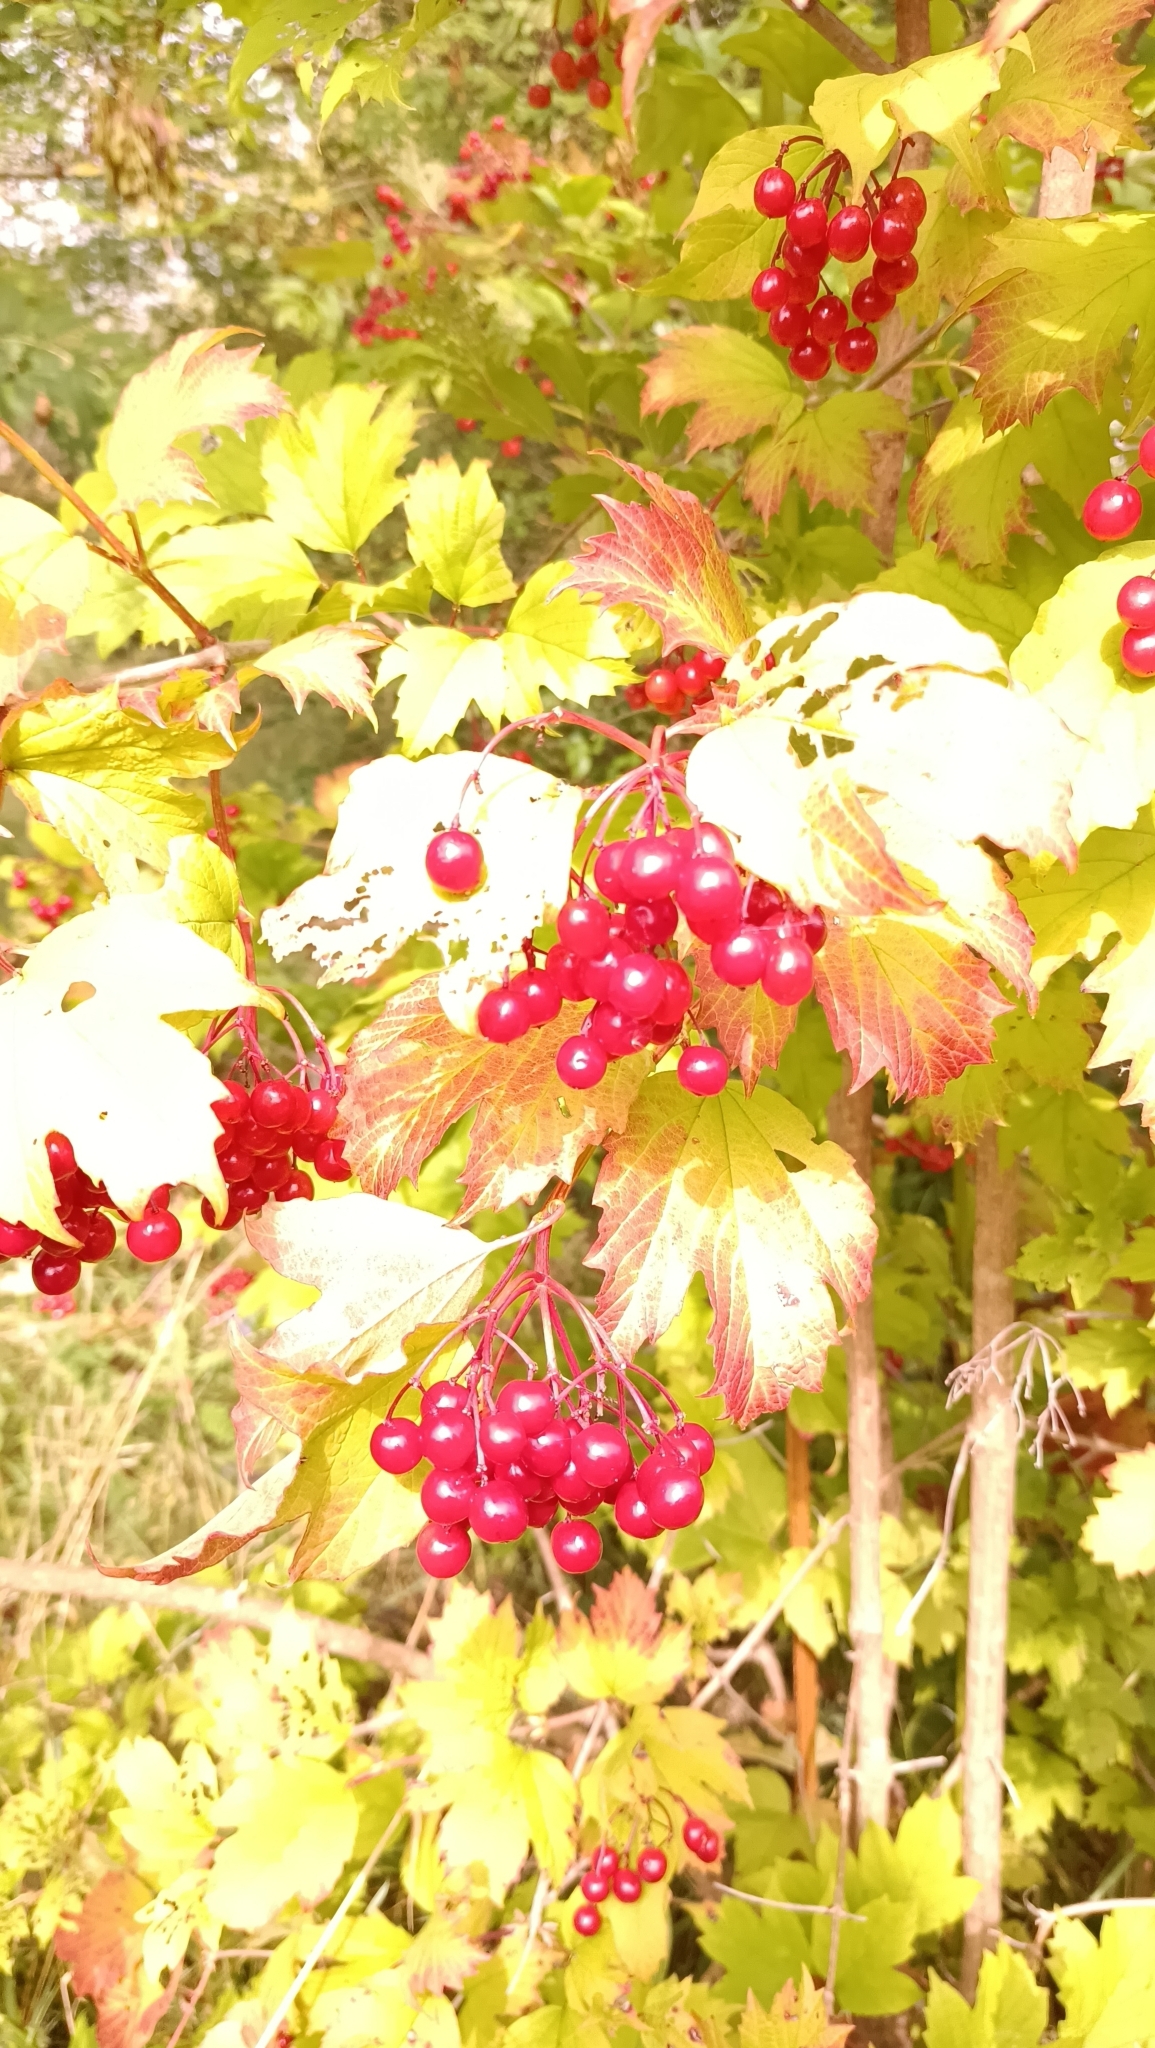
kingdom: Plantae
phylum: Tracheophyta
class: Magnoliopsida
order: Dipsacales
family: Viburnaceae
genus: Viburnum
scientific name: Viburnum opulus
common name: Guelder-rose
